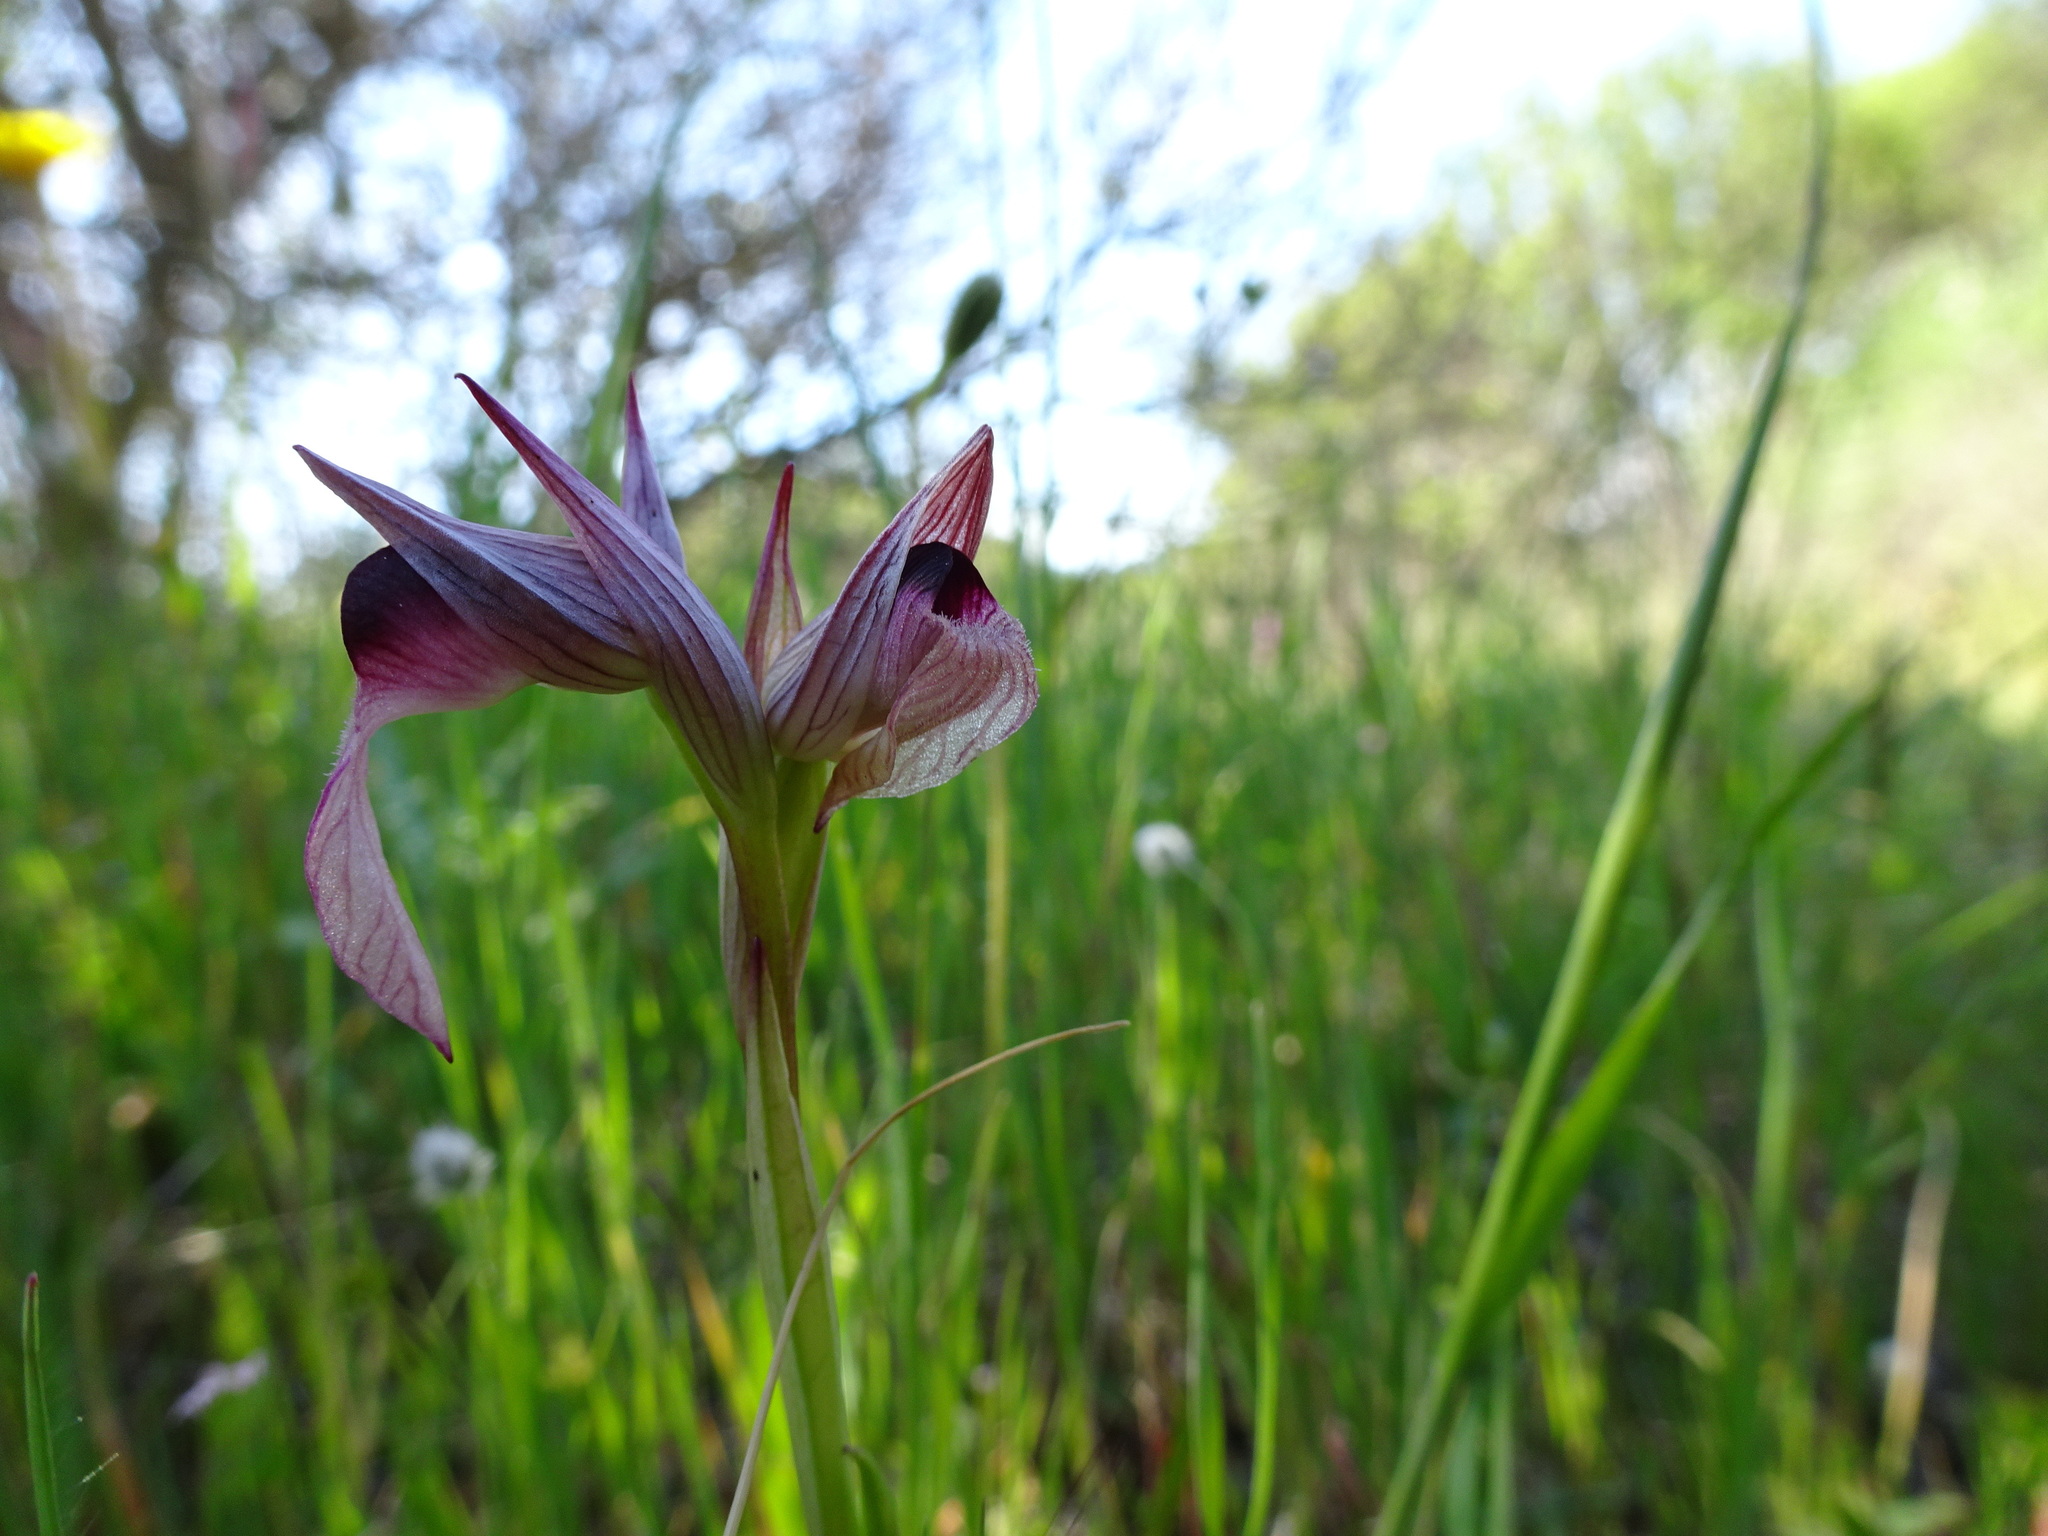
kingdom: Plantae
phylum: Tracheophyta
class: Liliopsida
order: Asparagales
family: Orchidaceae
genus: Serapias
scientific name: Serapias lingua
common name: Tongue-orchid
